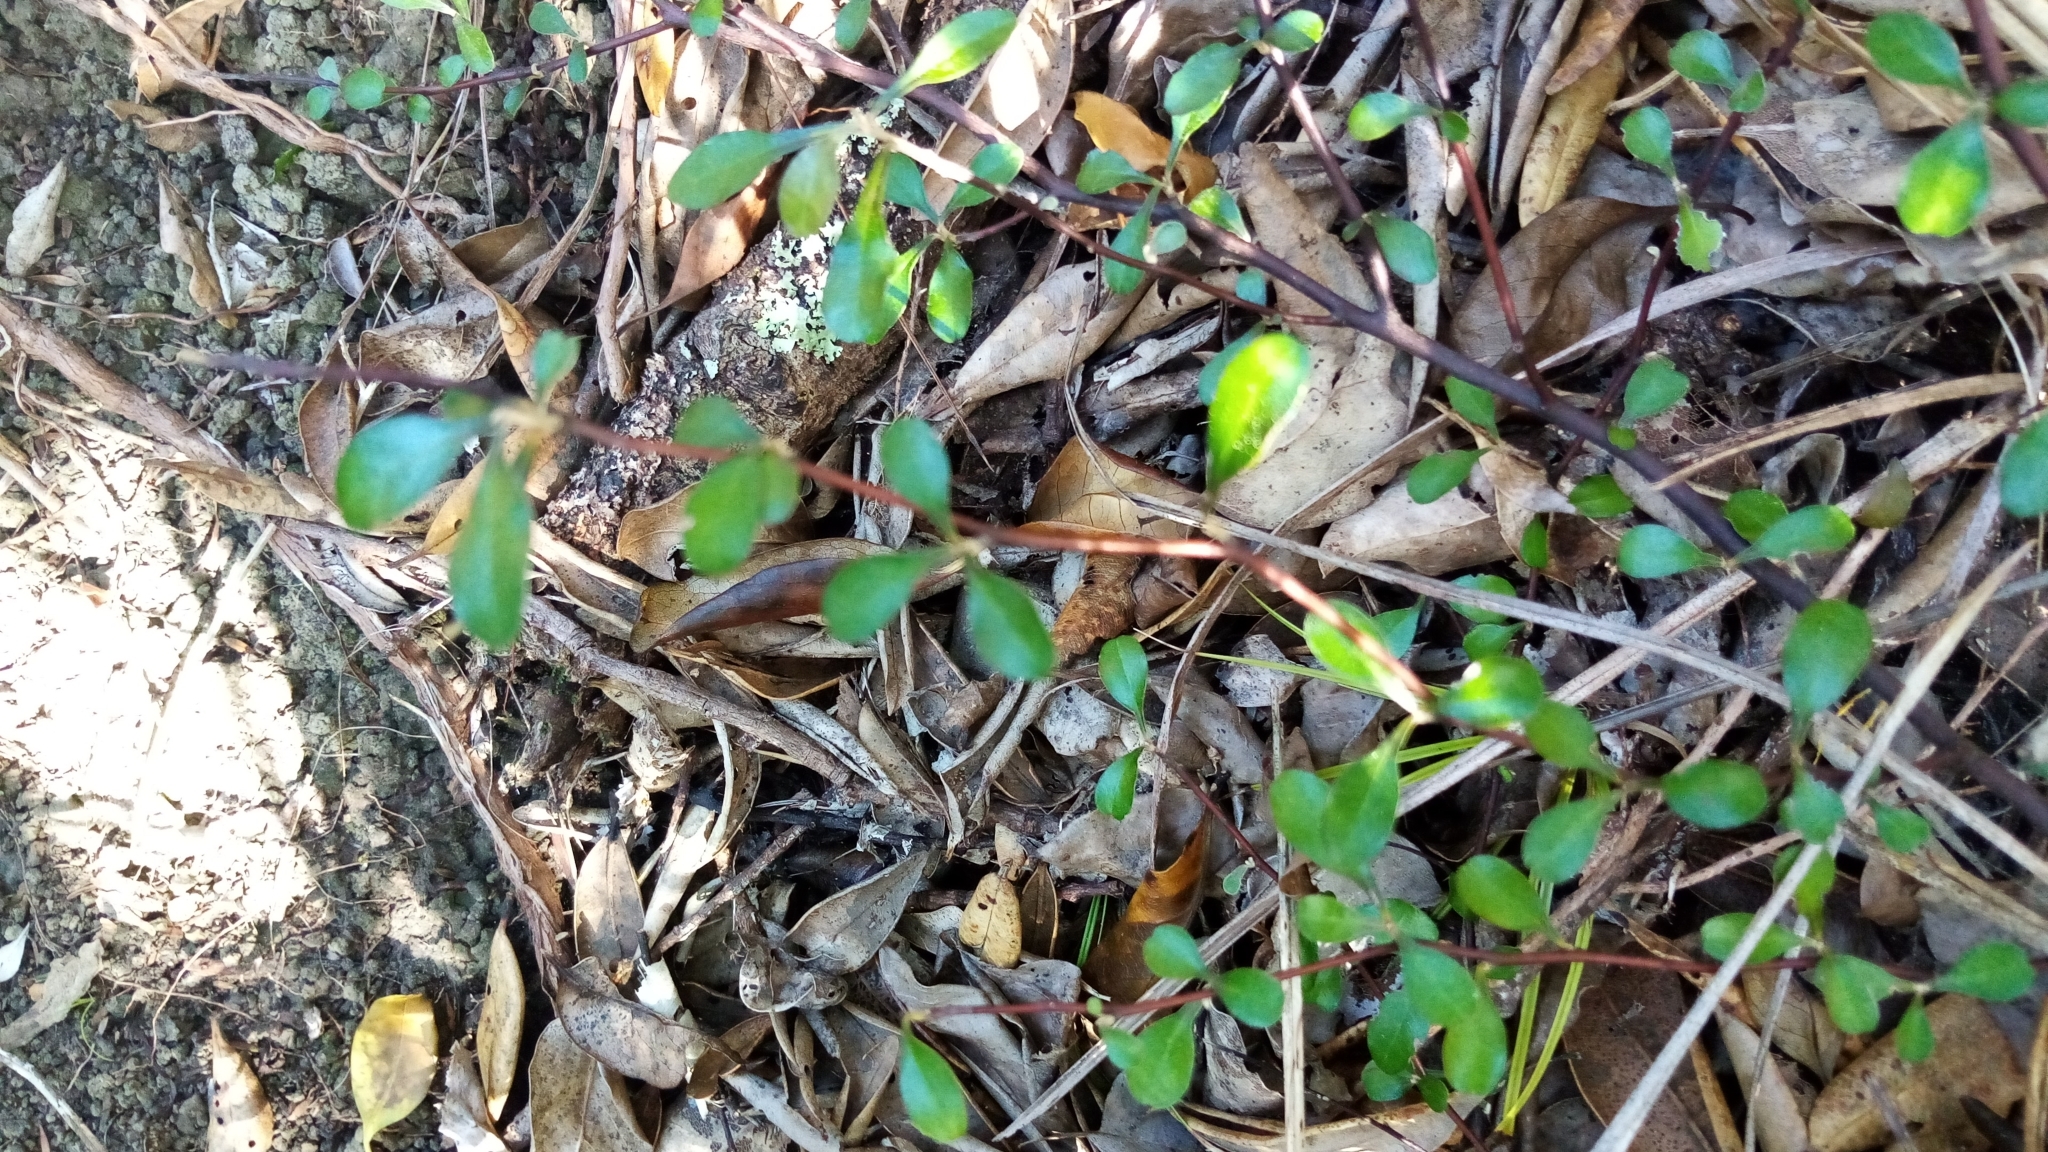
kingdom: Plantae
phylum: Tracheophyta
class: Magnoliopsida
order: Asterales
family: Argophyllaceae
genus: Corokia
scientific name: Corokia cotoneaster
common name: Wire nettingbush
